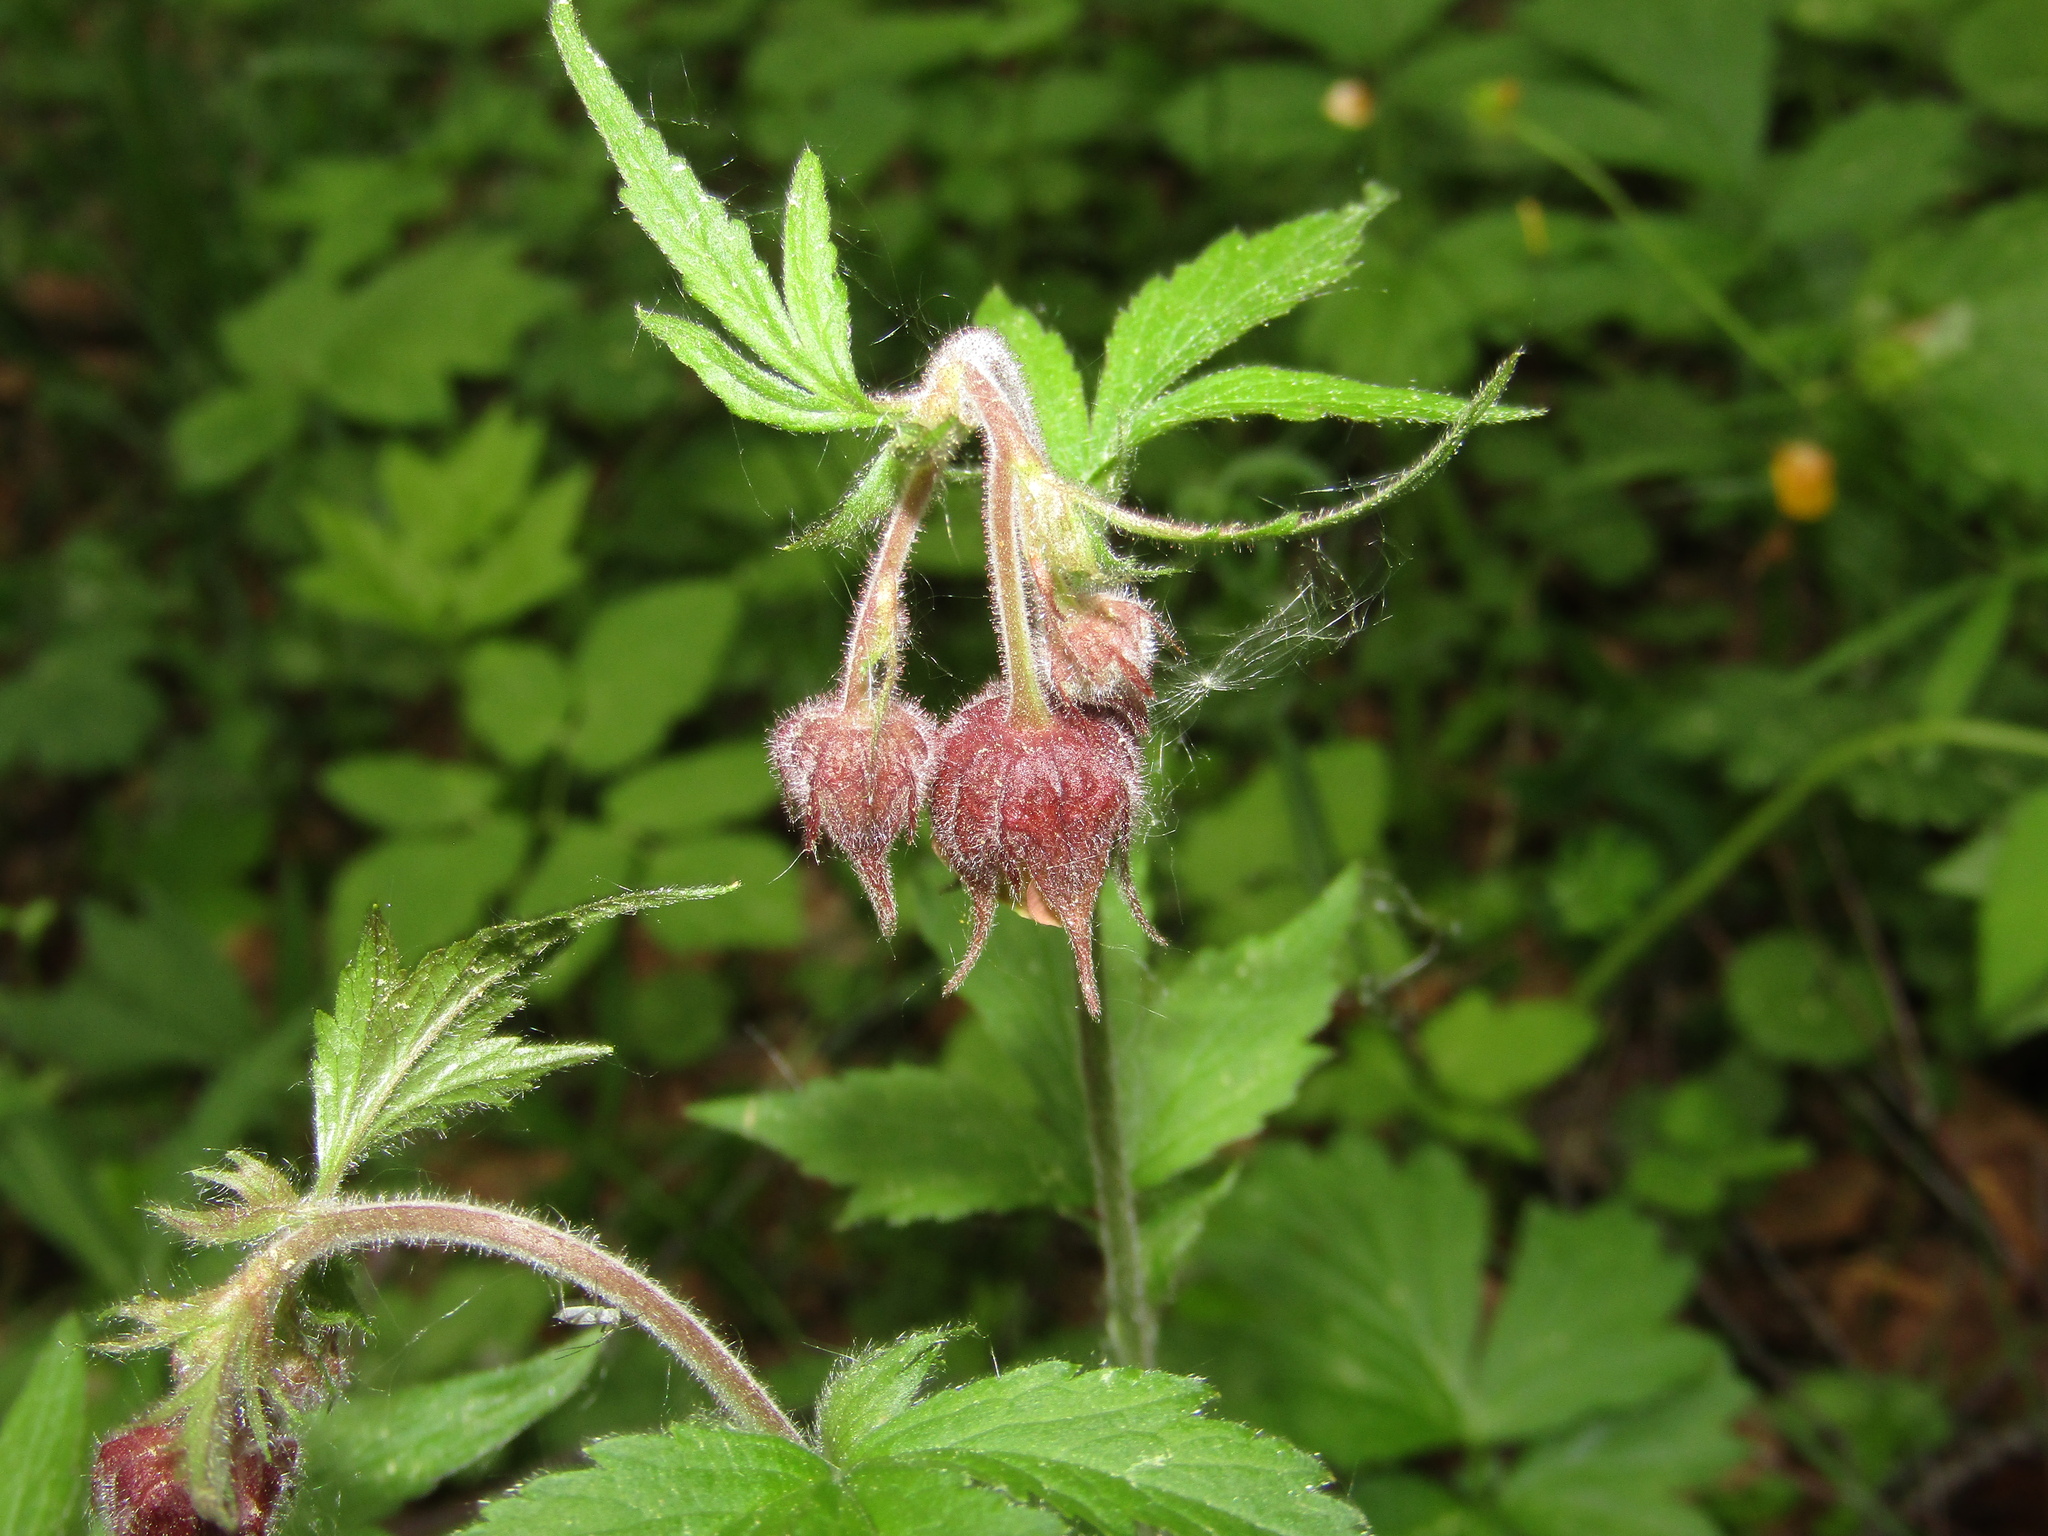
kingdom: Plantae
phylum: Tracheophyta
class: Magnoliopsida
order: Rosales
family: Rosaceae
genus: Geum
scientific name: Geum rivale
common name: Water avens
